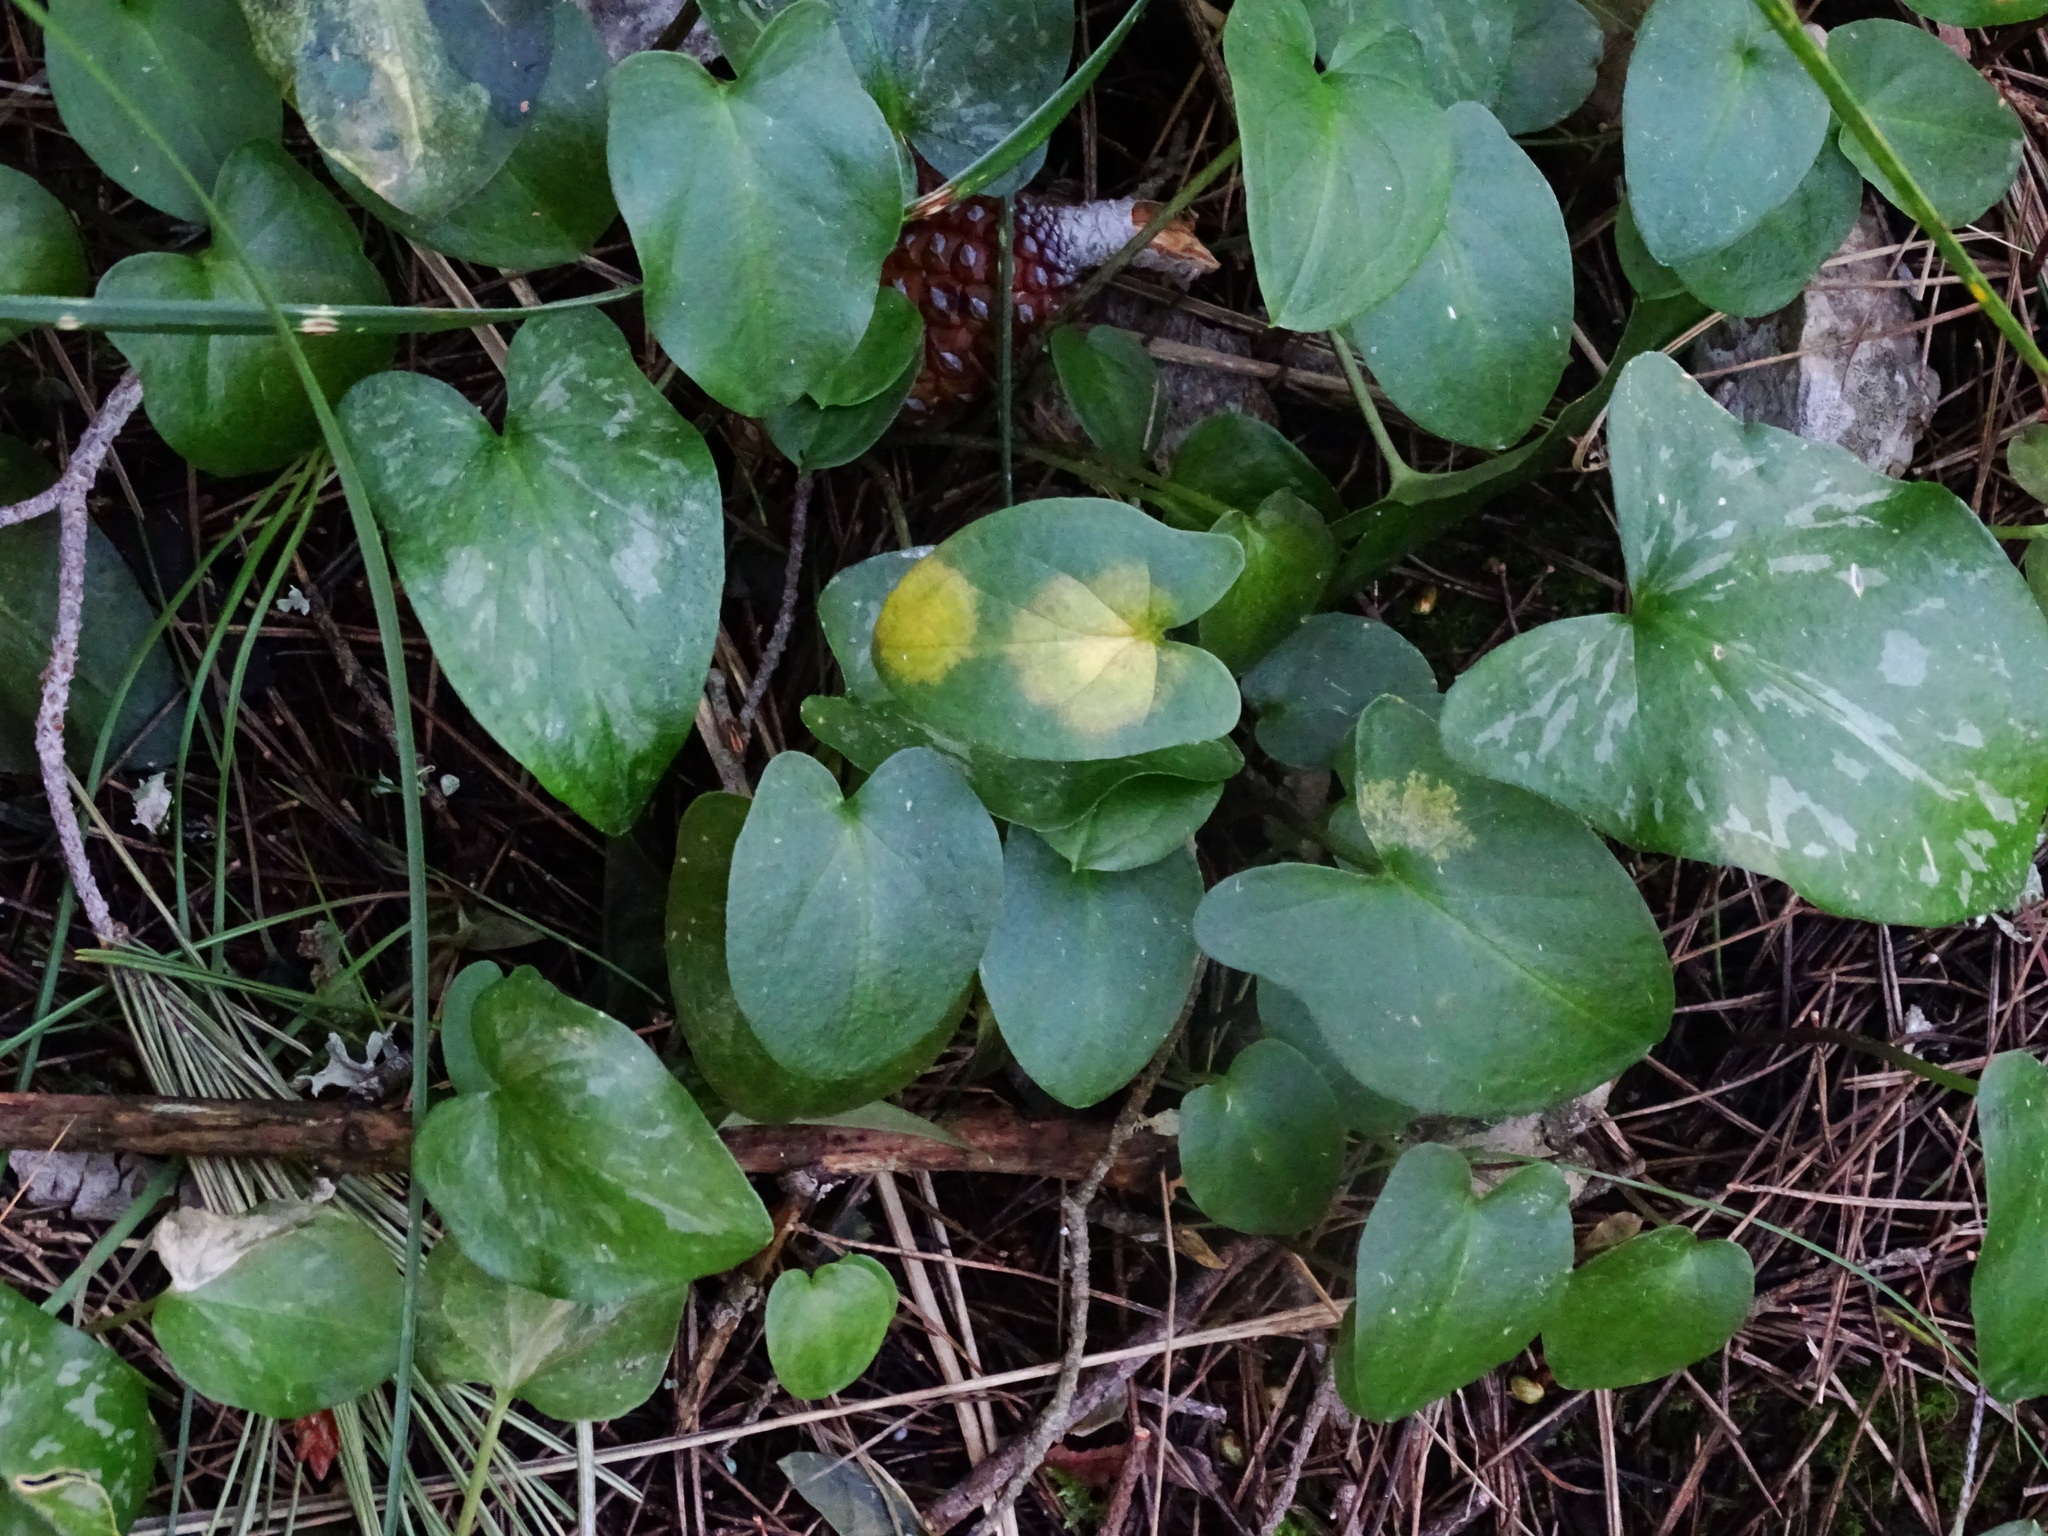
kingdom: Chromista
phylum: Ochrophyta
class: Xanthophyceae
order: Phyllosiphonales
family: Phyllosiphonaceae
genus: Phyllosiphon
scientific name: Phyllosiphon arisari
